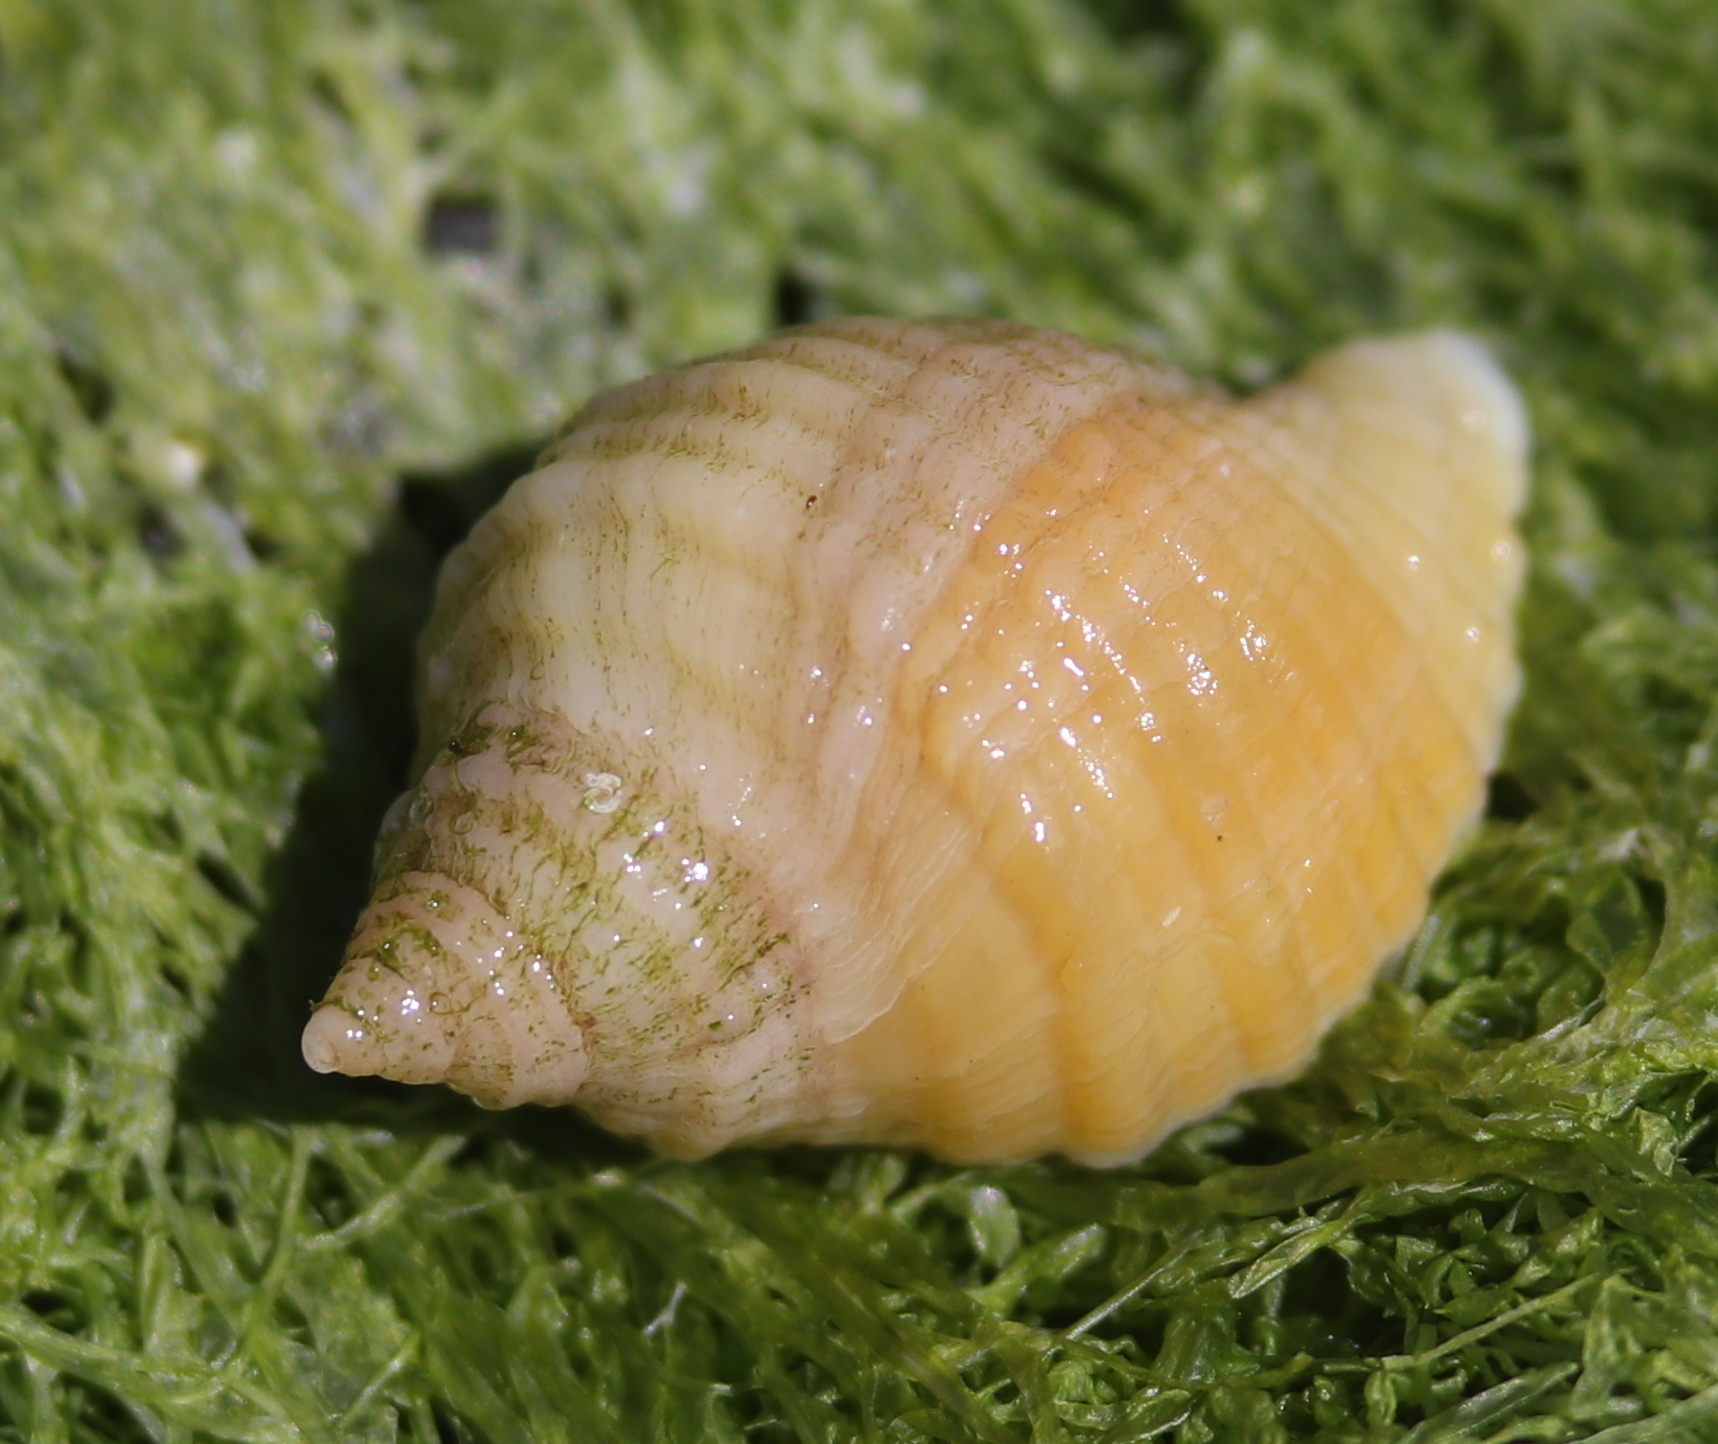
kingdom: Animalia
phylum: Mollusca
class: Gastropoda
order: Neogastropoda
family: Muricidae
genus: Nucella
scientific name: Nucella lapillus
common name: Dog whelk
